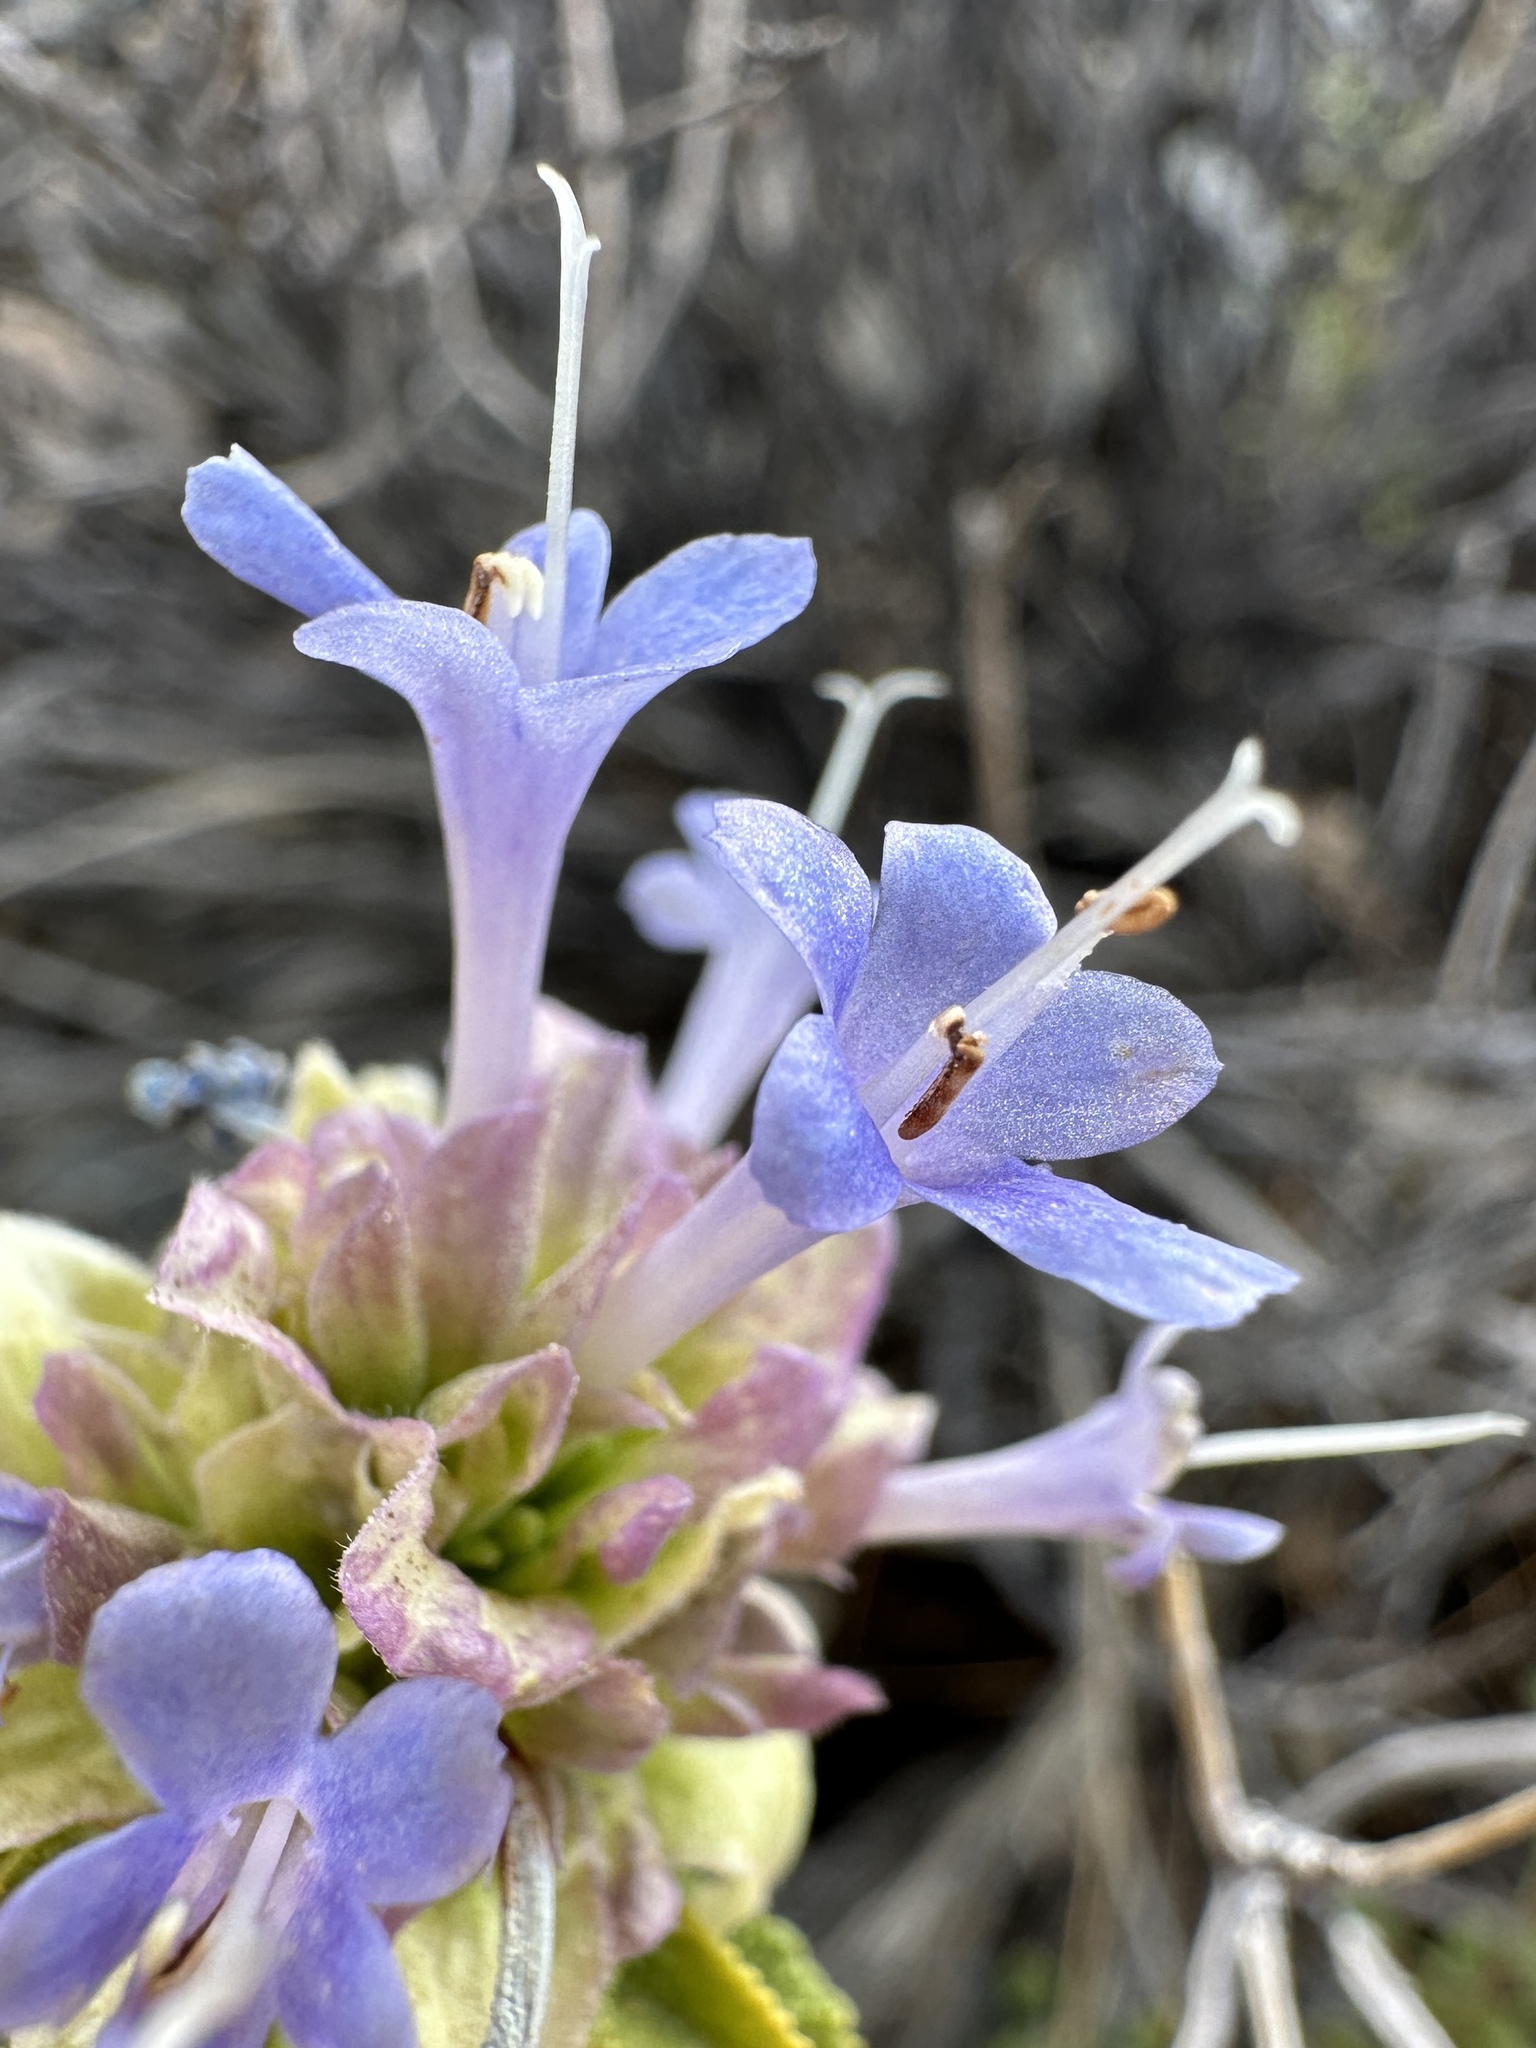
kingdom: Plantae
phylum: Tracheophyta
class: Magnoliopsida
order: Lamiales
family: Lamiaceae
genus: Salvia
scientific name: Salvia mohavensis
